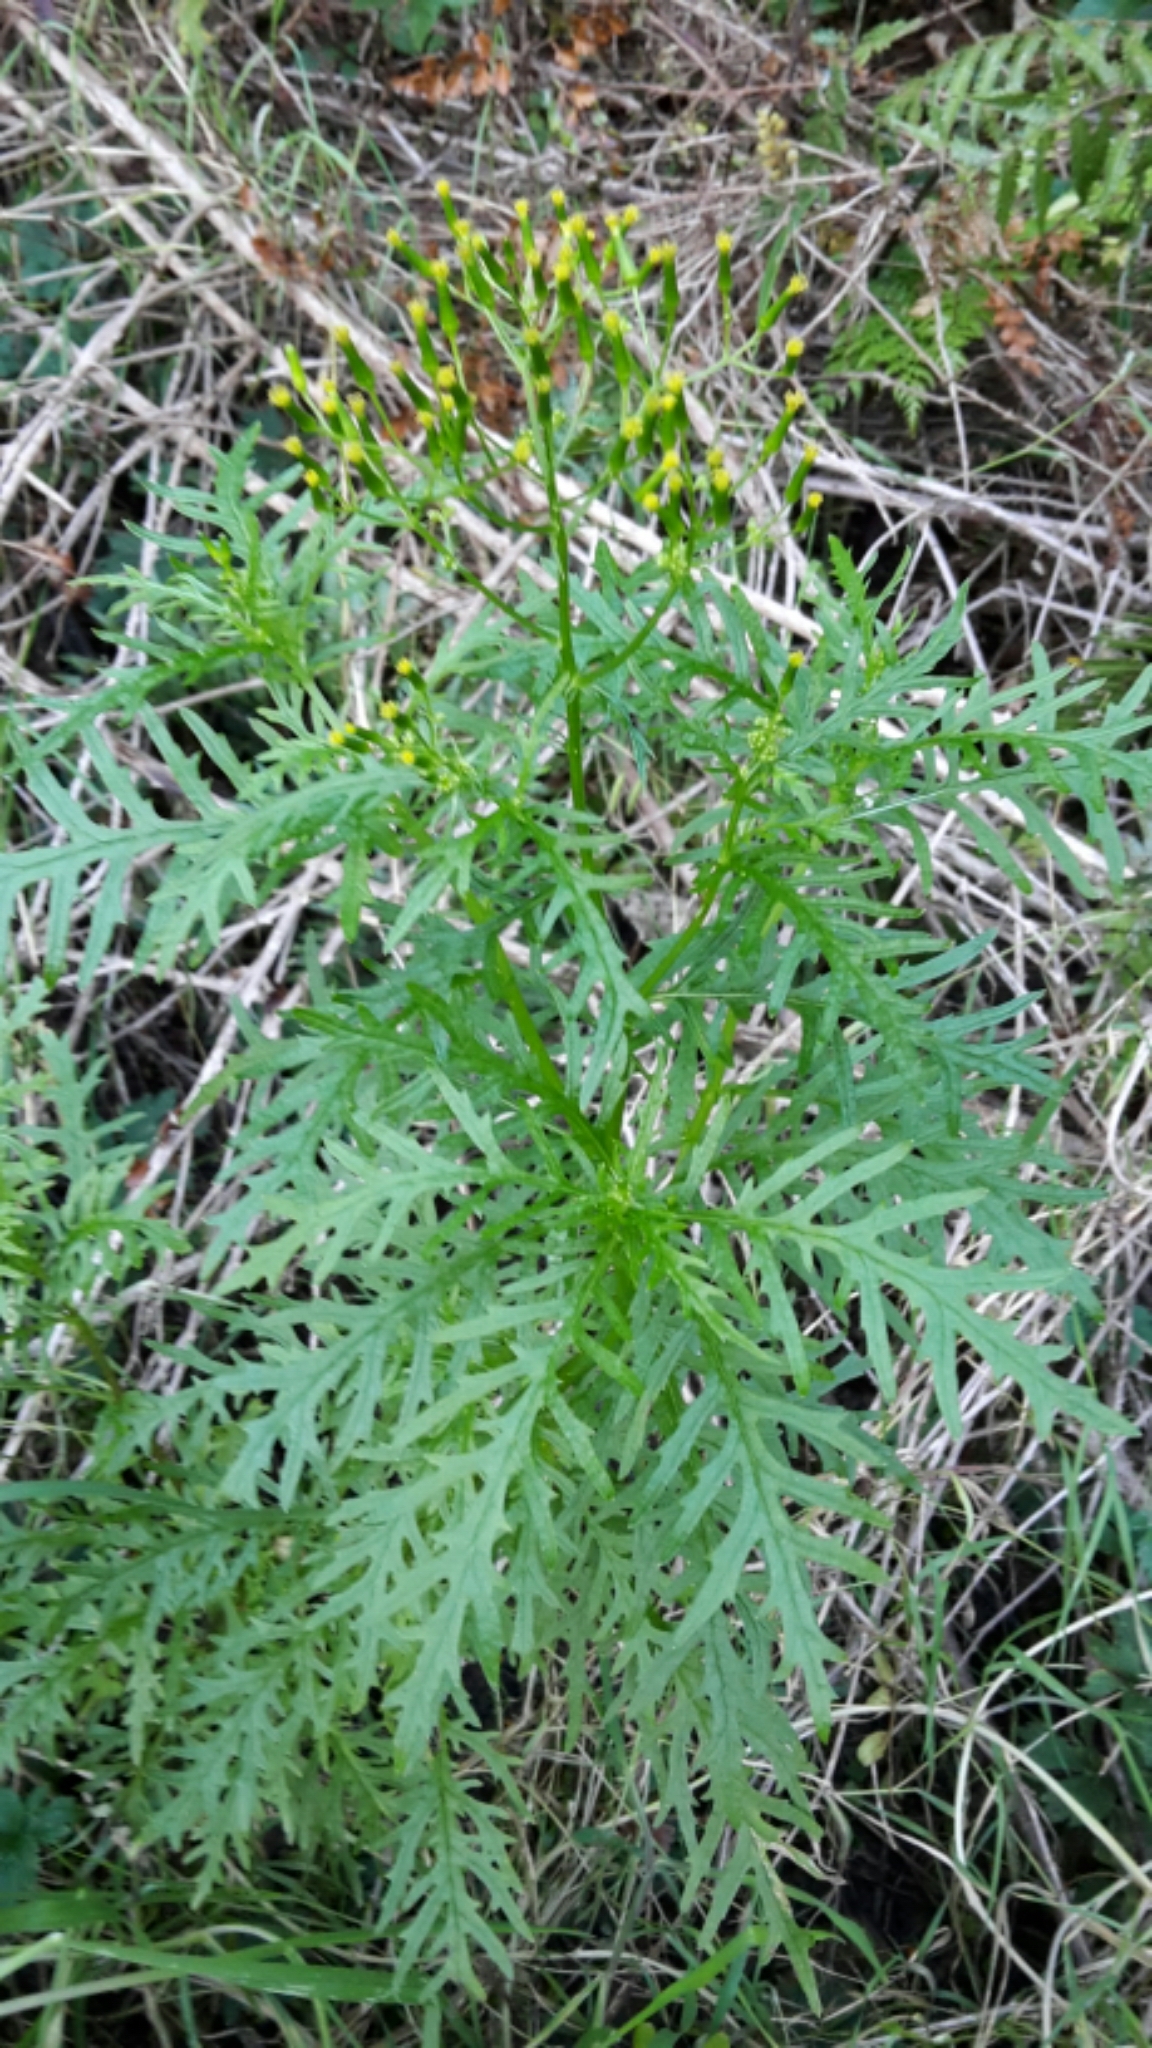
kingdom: Plantae
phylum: Tracheophyta
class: Magnoliopsida
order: Asterales
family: Asteraceae
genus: Senecio
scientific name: Senecio esleri
